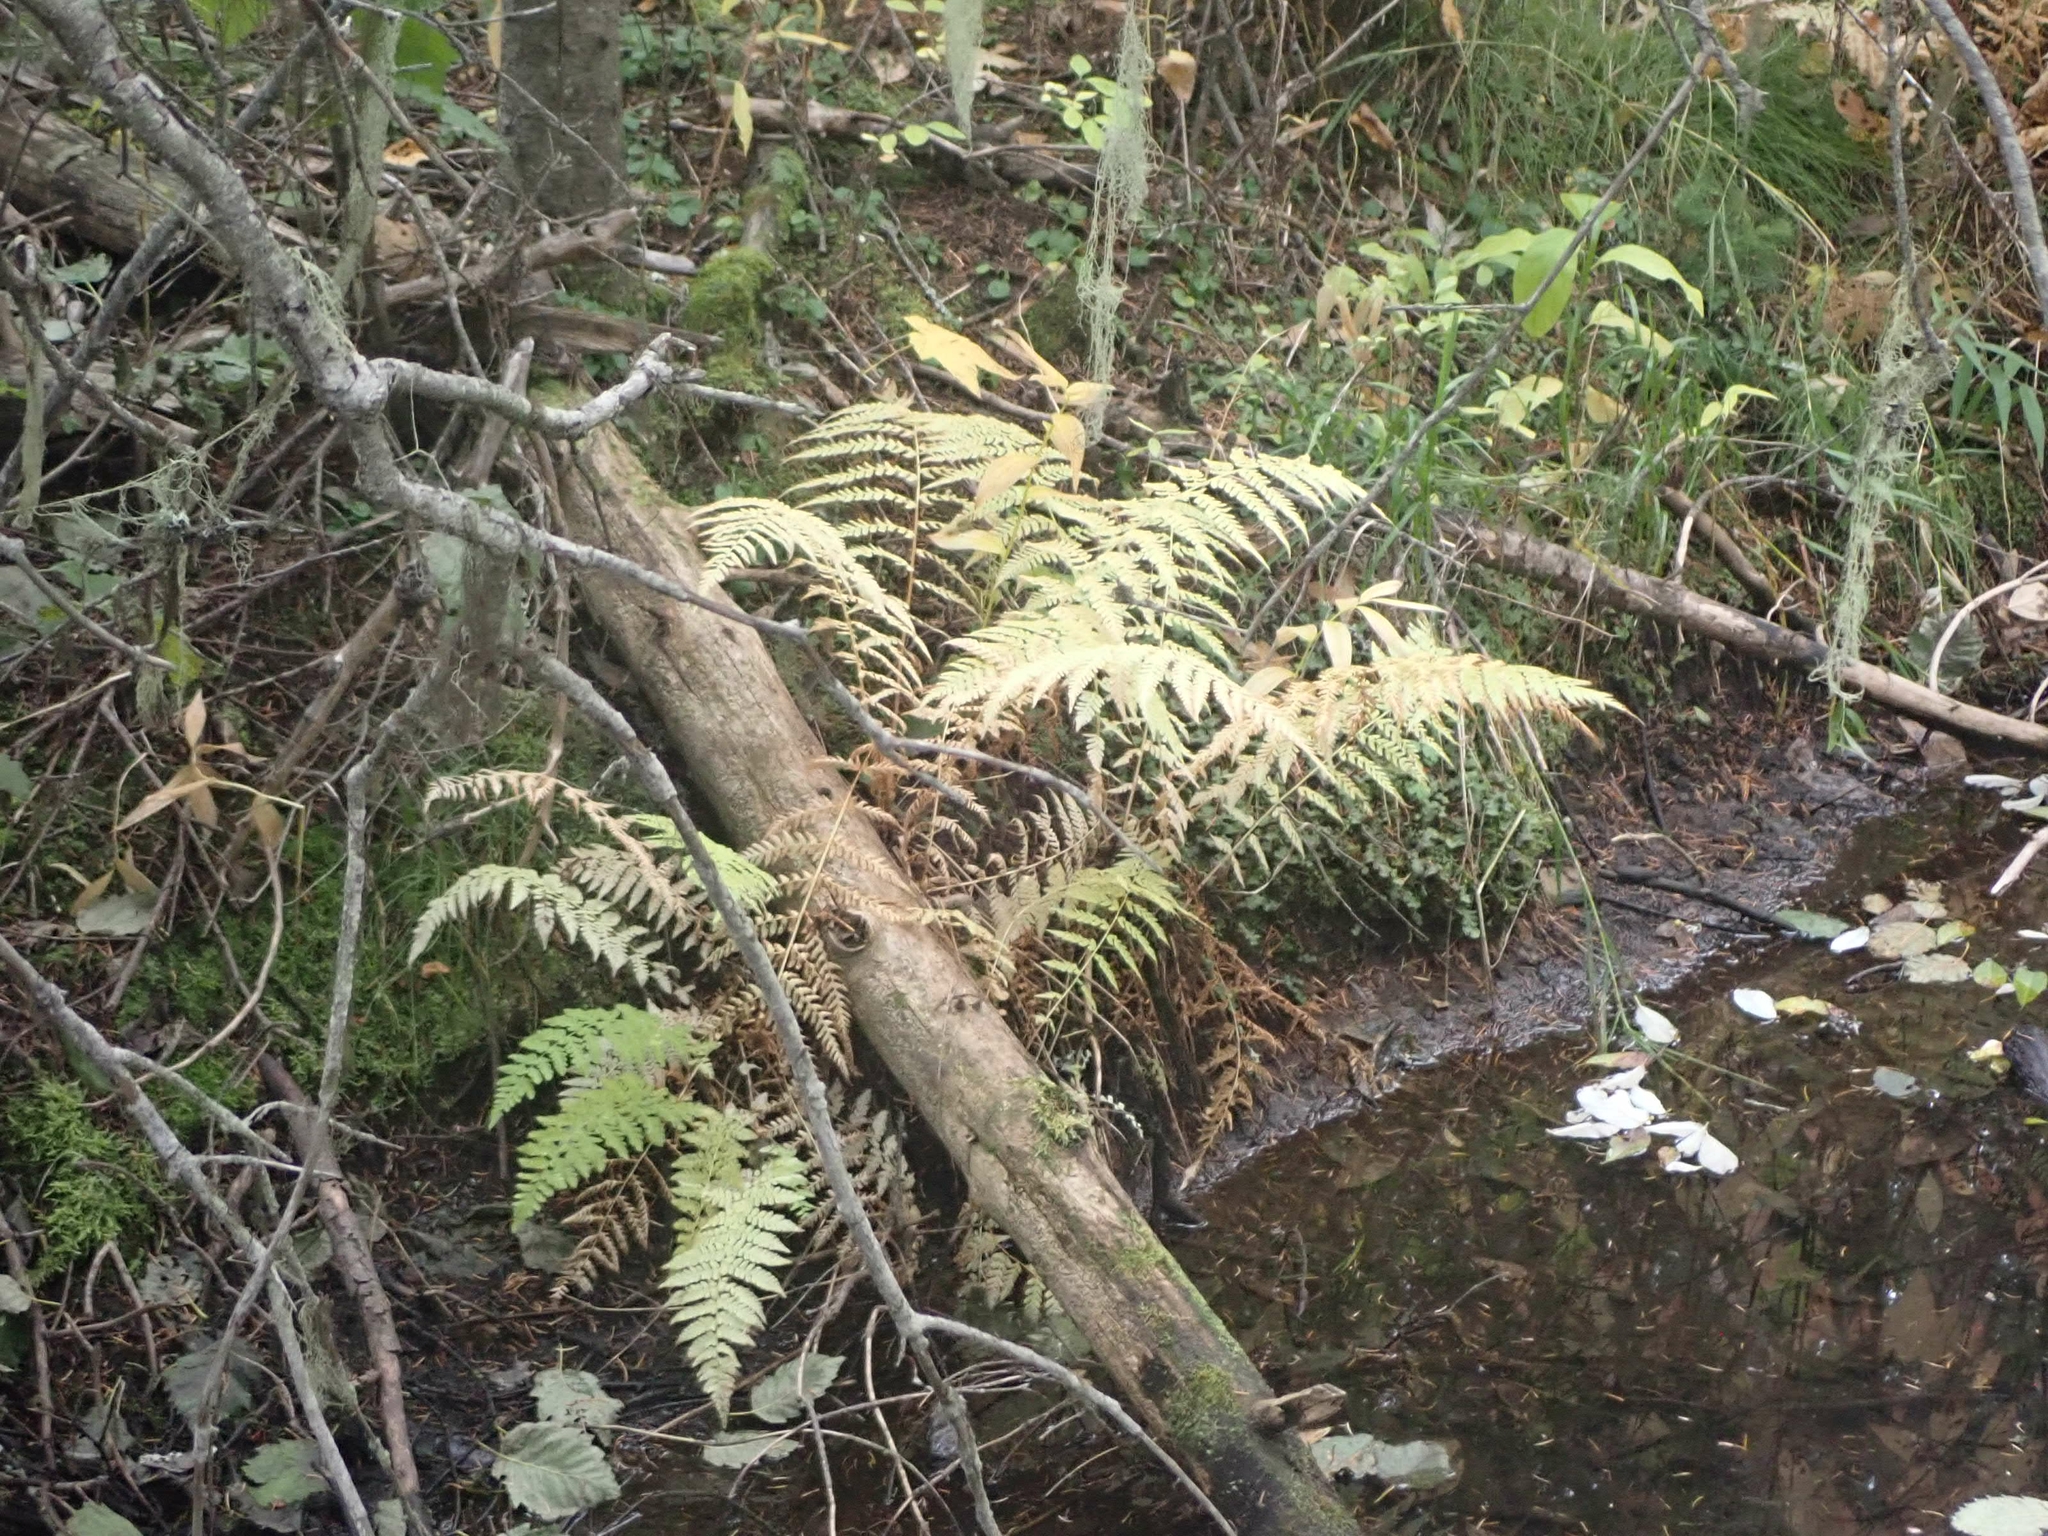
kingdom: Plantae
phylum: Tracheophyta
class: Polypodiopsida
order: Polypodiales
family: Athyriaceae
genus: Athyrium
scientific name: Athyrium filix-femina
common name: Lady fern
